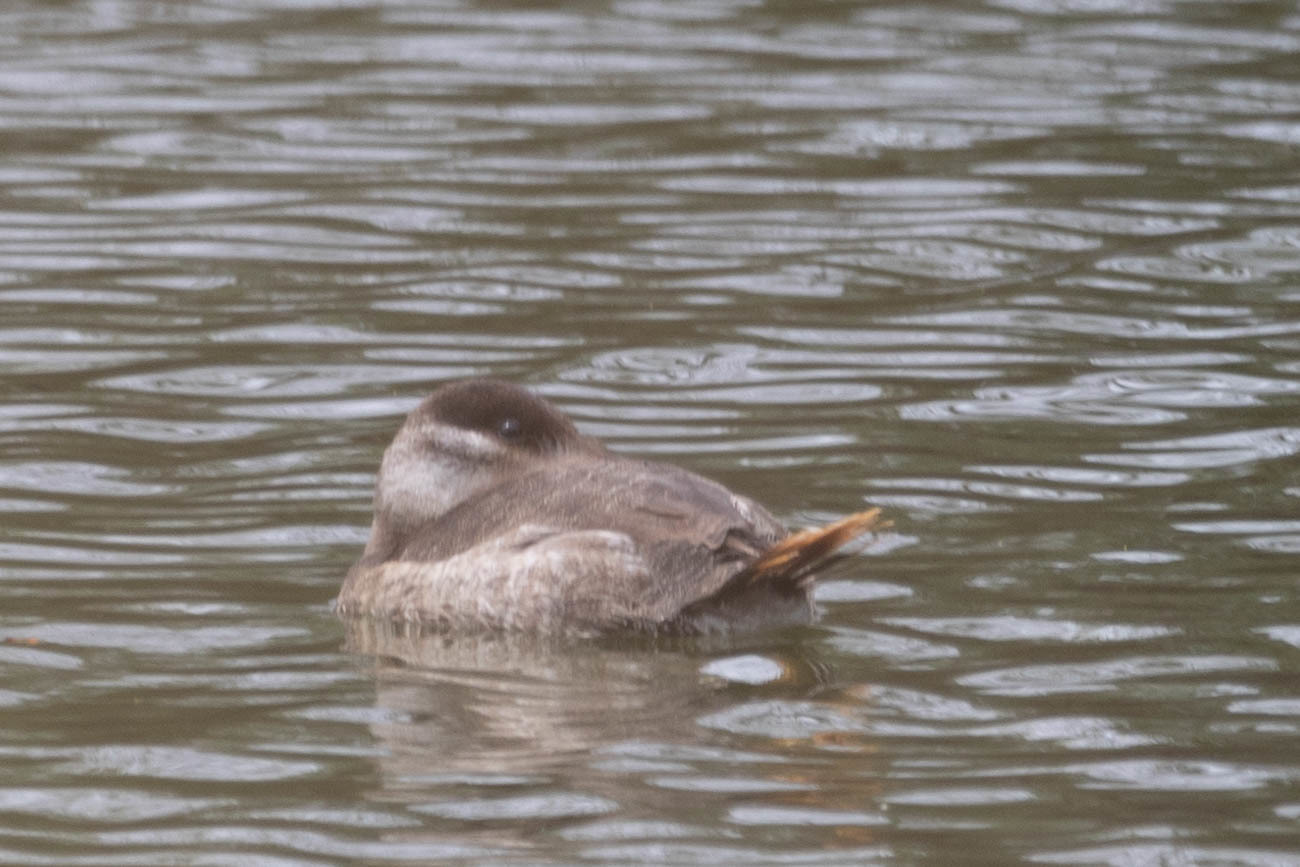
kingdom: Animalia
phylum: Chordata
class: Aves
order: Anseriformes
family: Anatidae
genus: Oxyura
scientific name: Oxyura jamaicensis
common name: Ruddy duck
